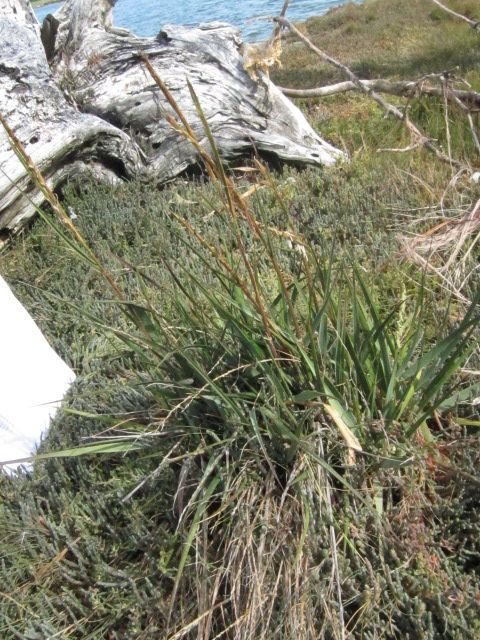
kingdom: Plantae
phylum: Tracheophyta
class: Liliopsida
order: Poales
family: Poaceae
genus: Sporobolus
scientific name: Sporobolus anglicus
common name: English cordgrass
